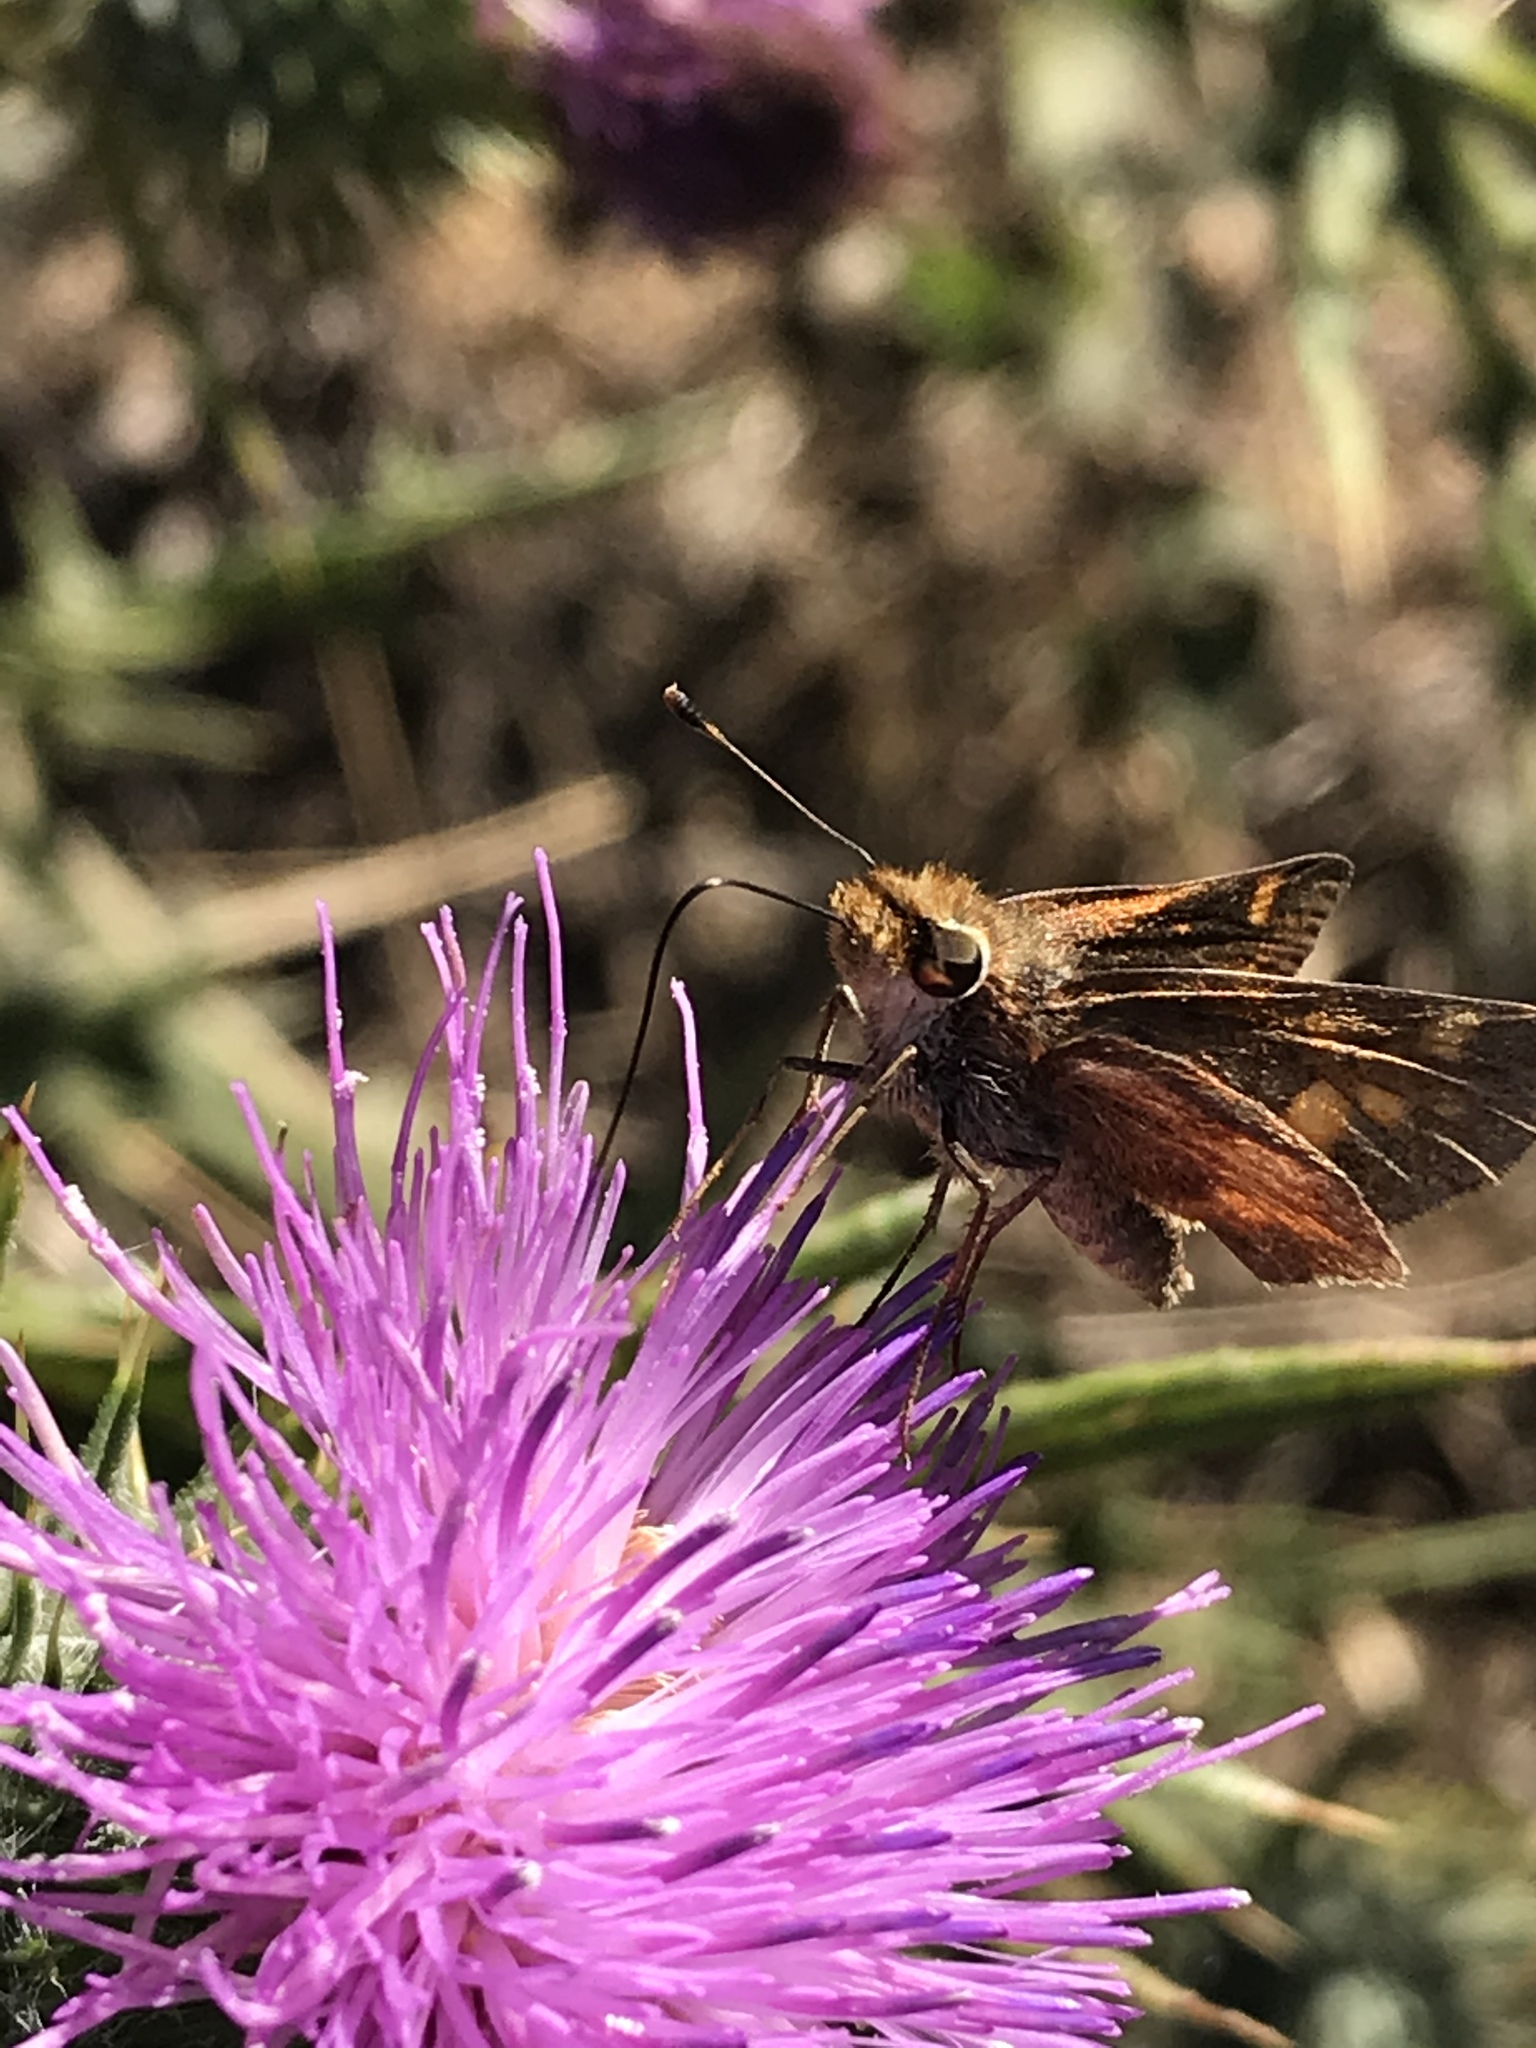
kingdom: Animalia
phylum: Arthropoda
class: Insecta
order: Lepidoptera
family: Hesperiidae
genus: Lon
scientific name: Lon melane
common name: Umber skipper
